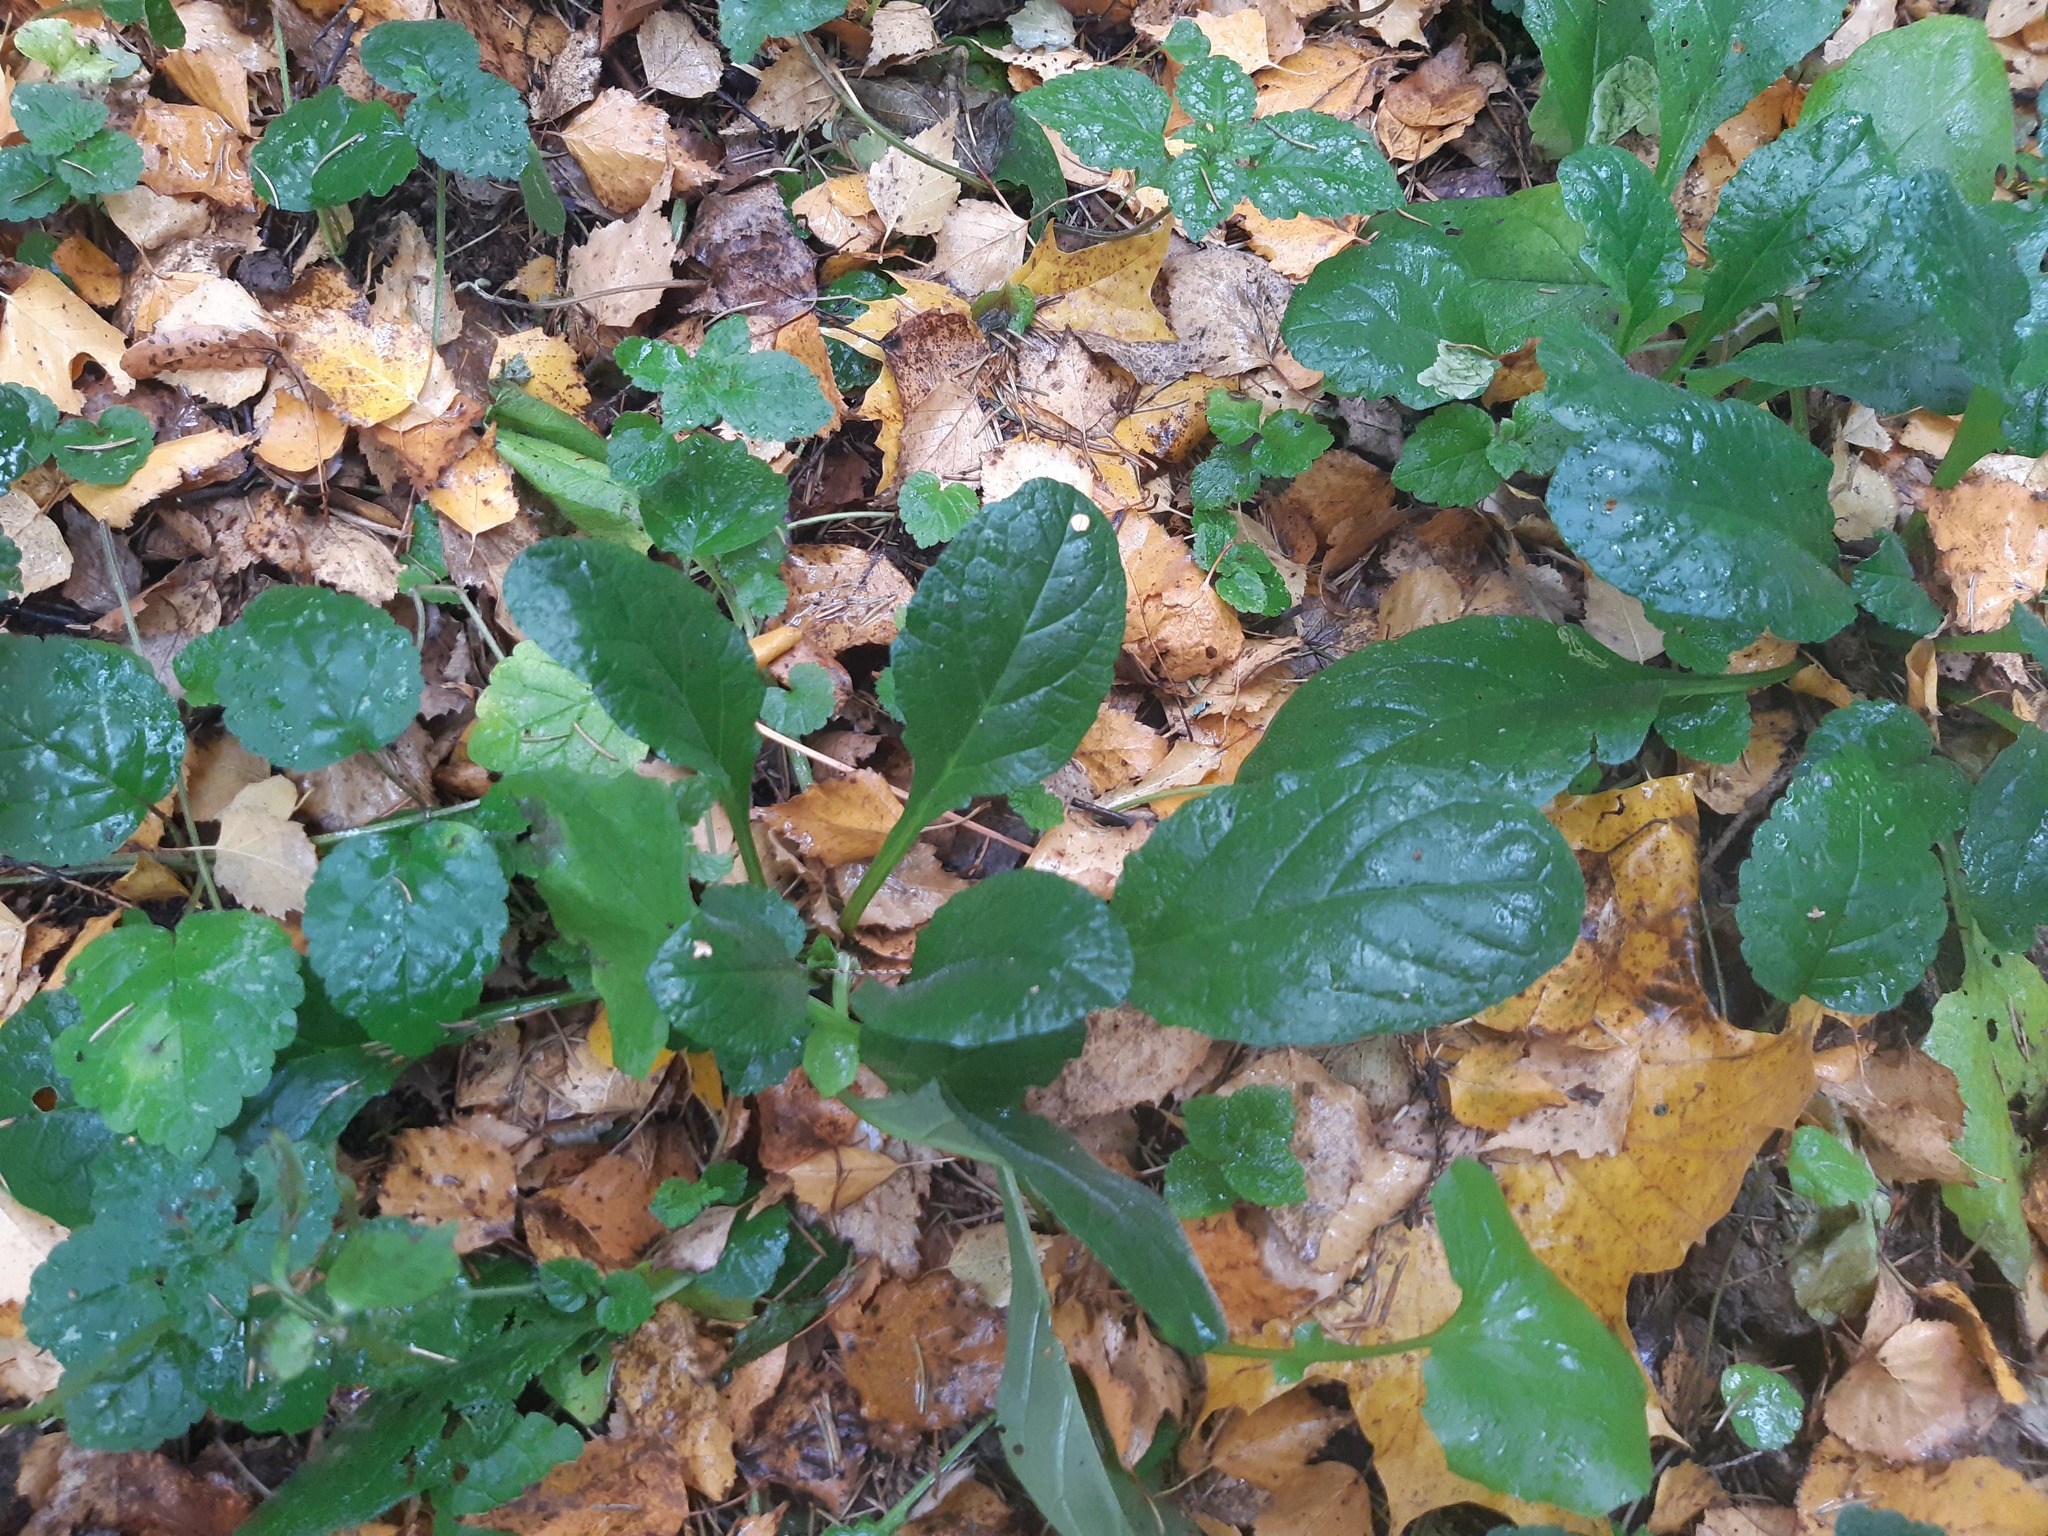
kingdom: Plantae
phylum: Tracheophyta
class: Magnoliopsida
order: Lamiales
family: Lamiaceae
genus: Ajuga
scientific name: Ajuga reptans
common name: Bugle
